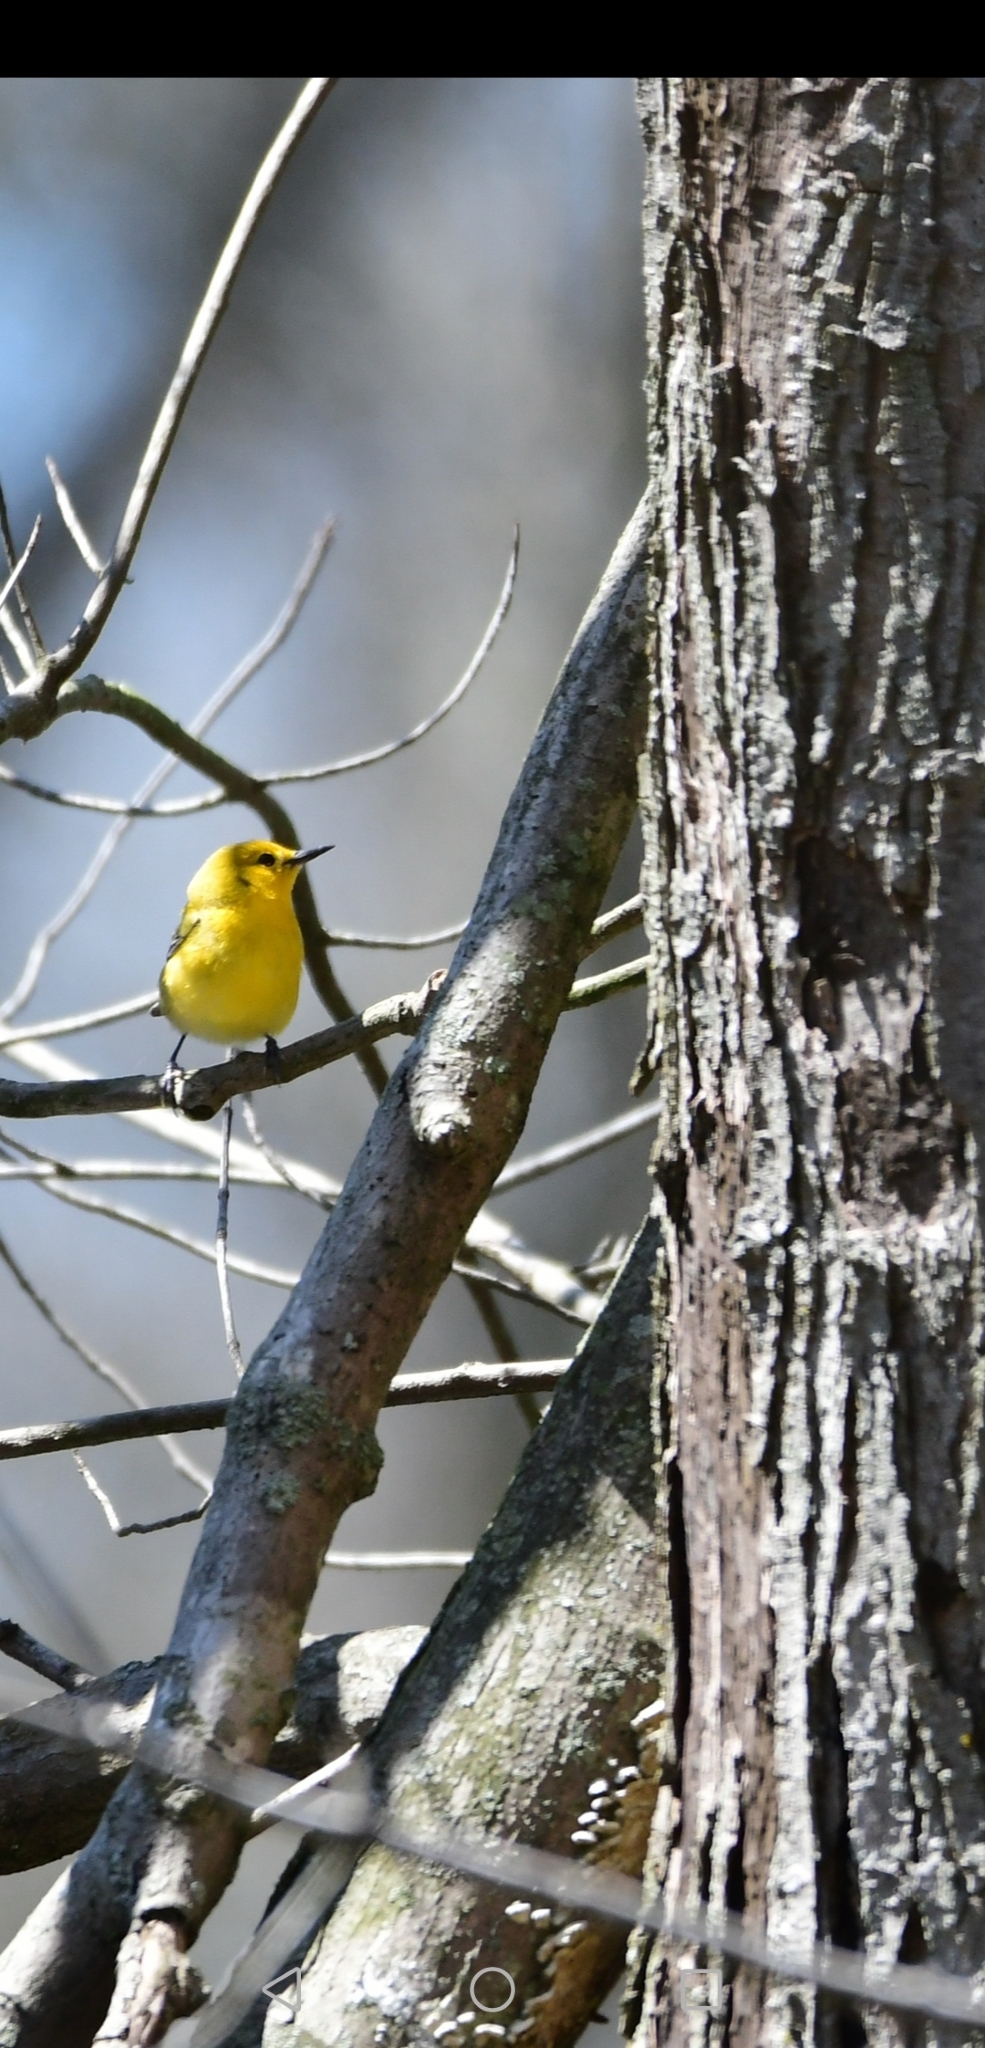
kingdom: Animalia
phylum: Chordata
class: Aves
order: Passeriformes
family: Parulidae
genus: Protonotaria
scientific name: Protonotaria citrea
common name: Prothonotary warbler
